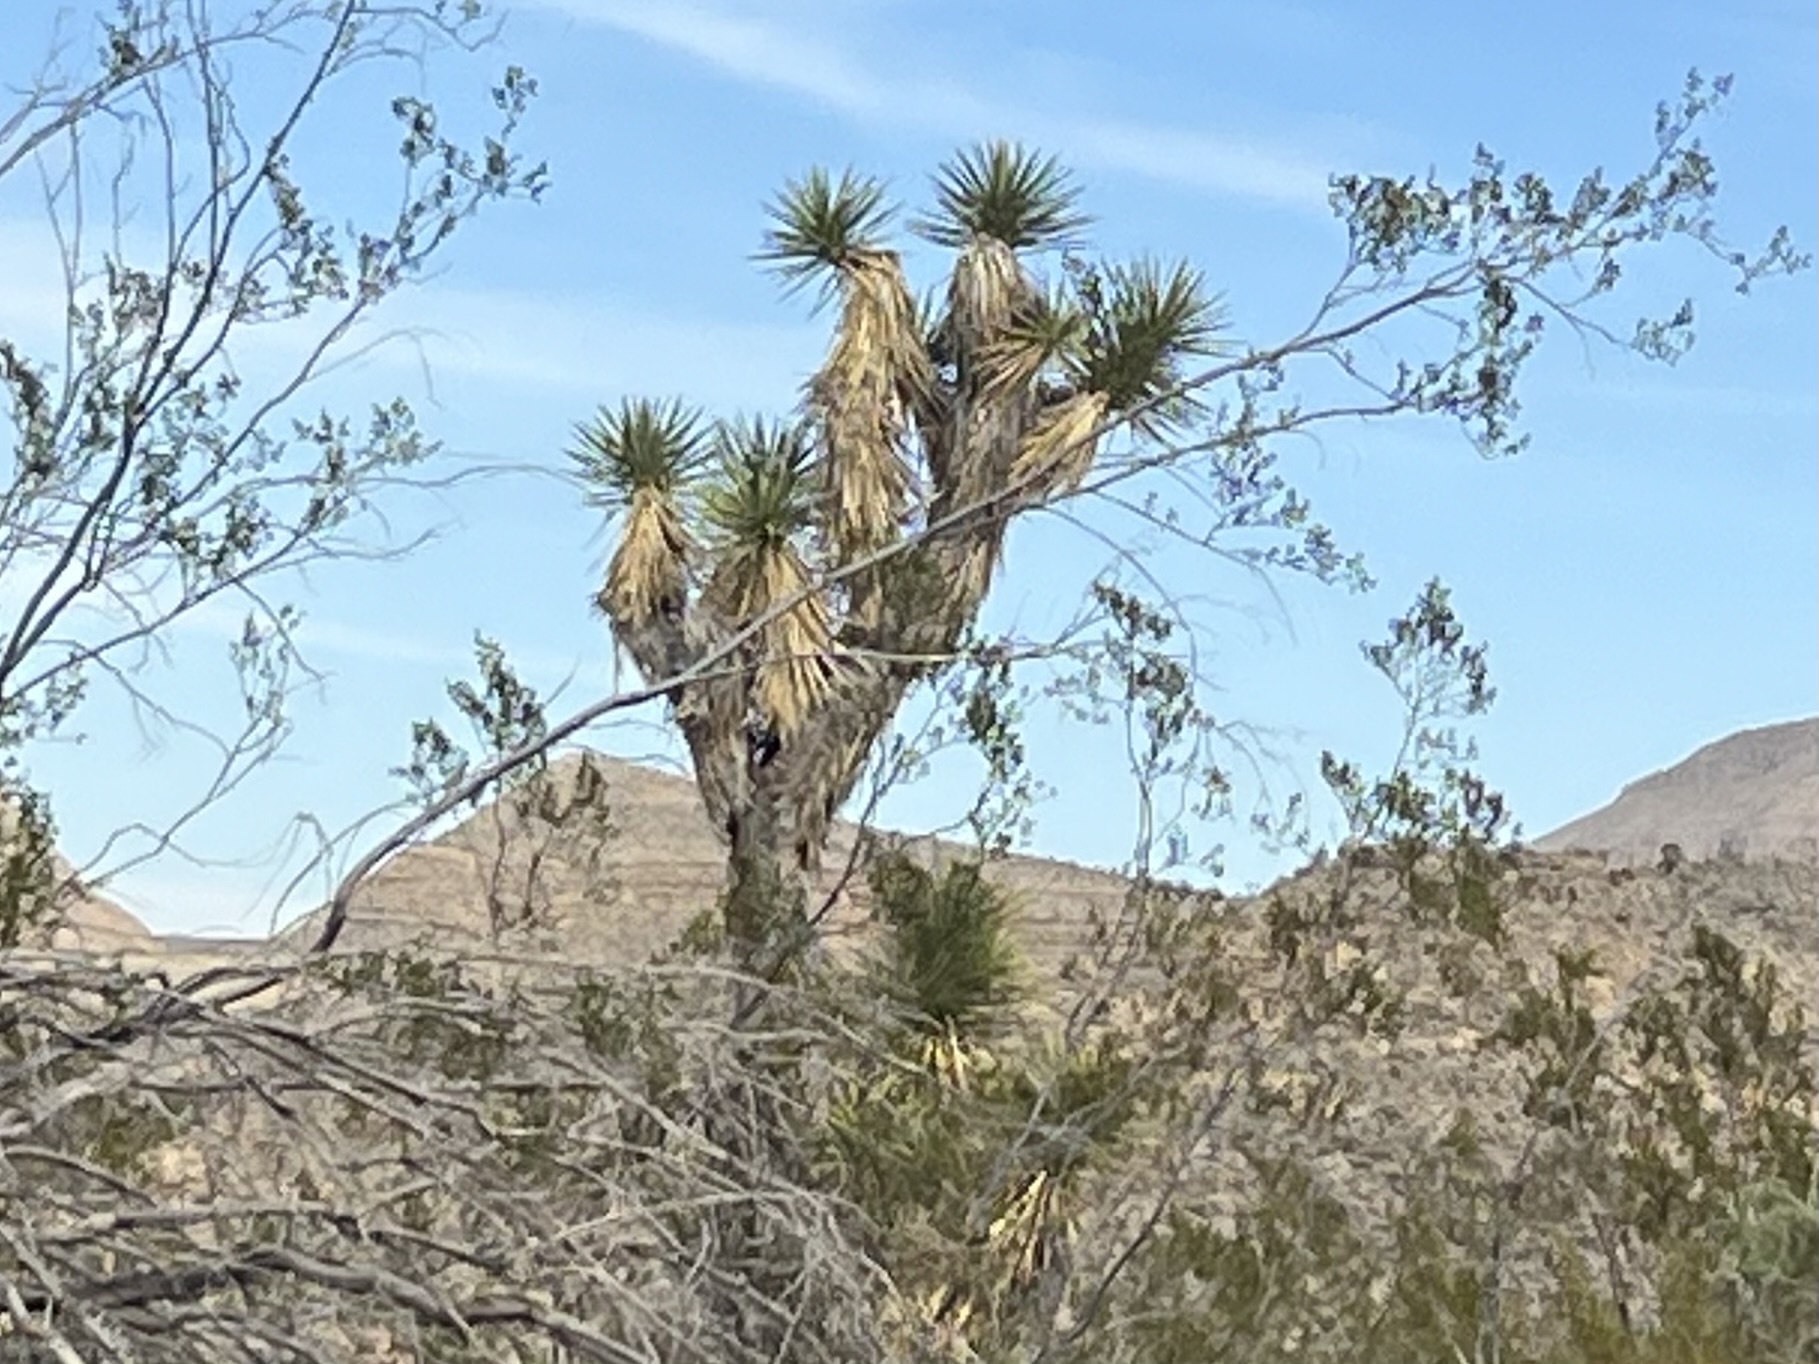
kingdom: Plantae
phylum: Tracheophyta
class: Liliopsida
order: Asparagales
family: Asparagaceae
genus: Yucca
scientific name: Yucca brevifolia
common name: Joshua tree
